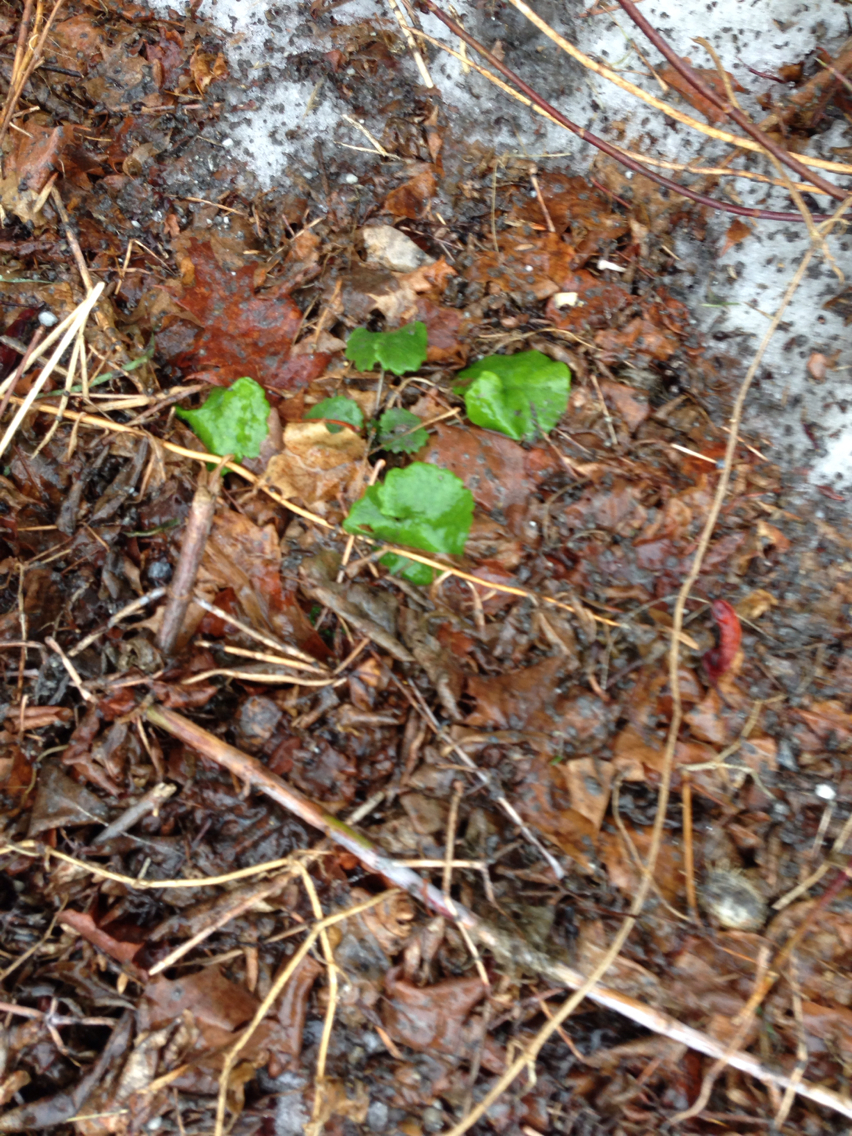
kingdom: Plantae
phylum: Tracheophyta
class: Magnoliopsida
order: Brassicales
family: Brassicaceae
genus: Alliaria
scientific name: Alliaria petiolata
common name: Garlic mustard
